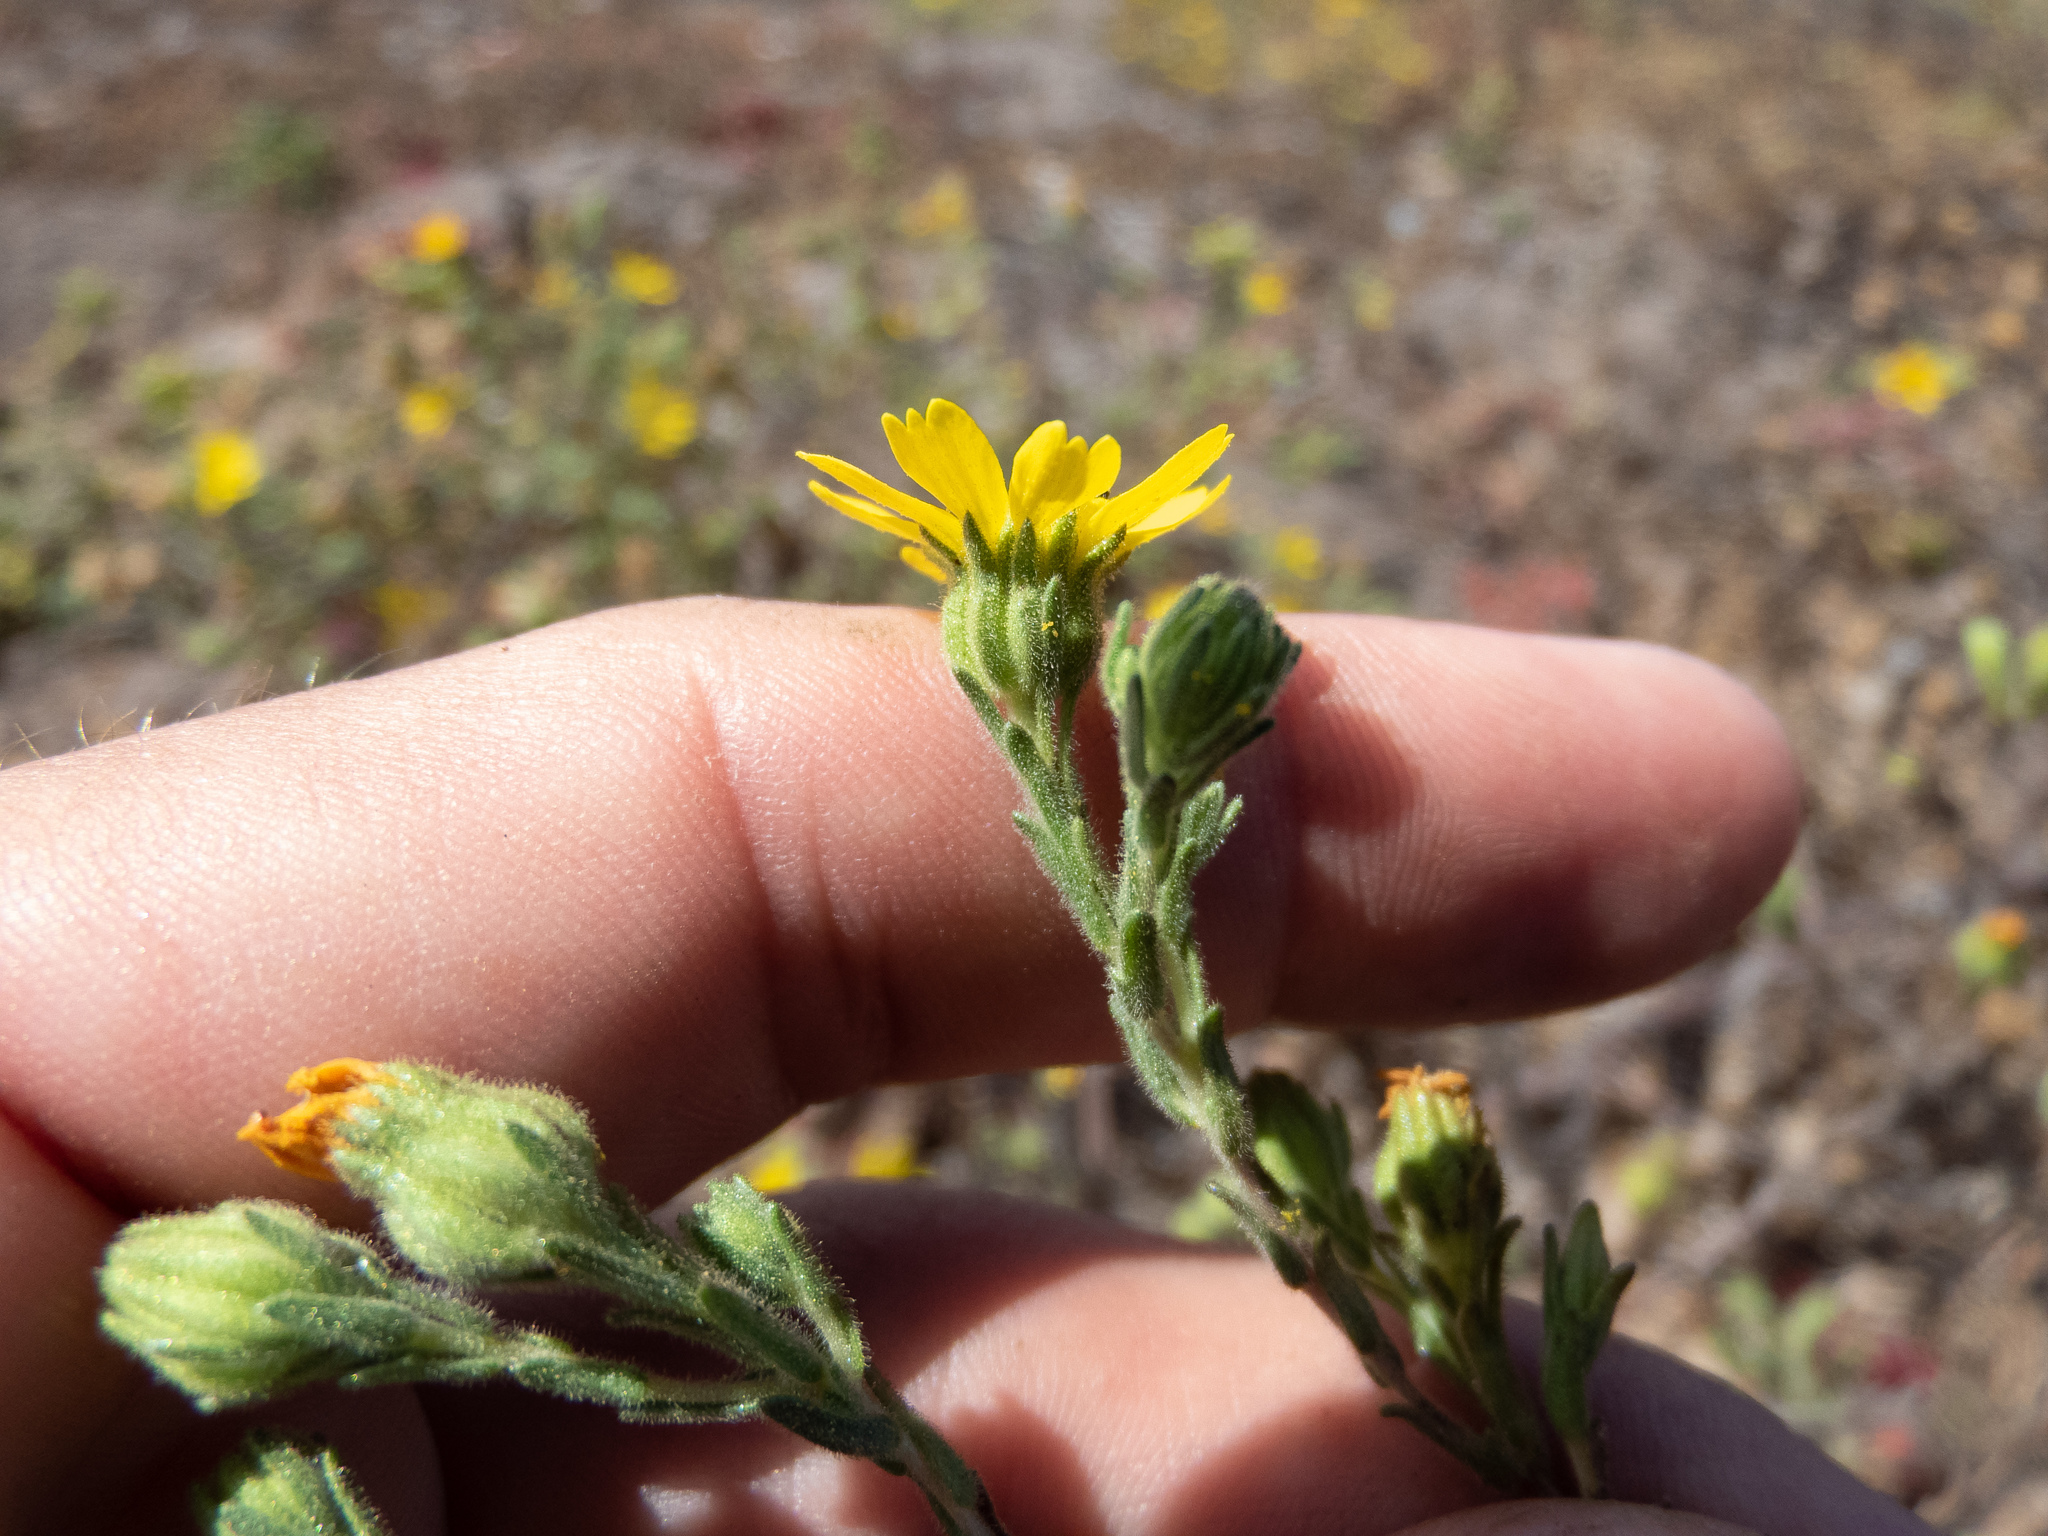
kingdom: Plantae
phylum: Tracheophyta
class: Magnoliopsida
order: Asterales
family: Asteraceae
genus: Deinandra
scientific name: Deinandra increscens
